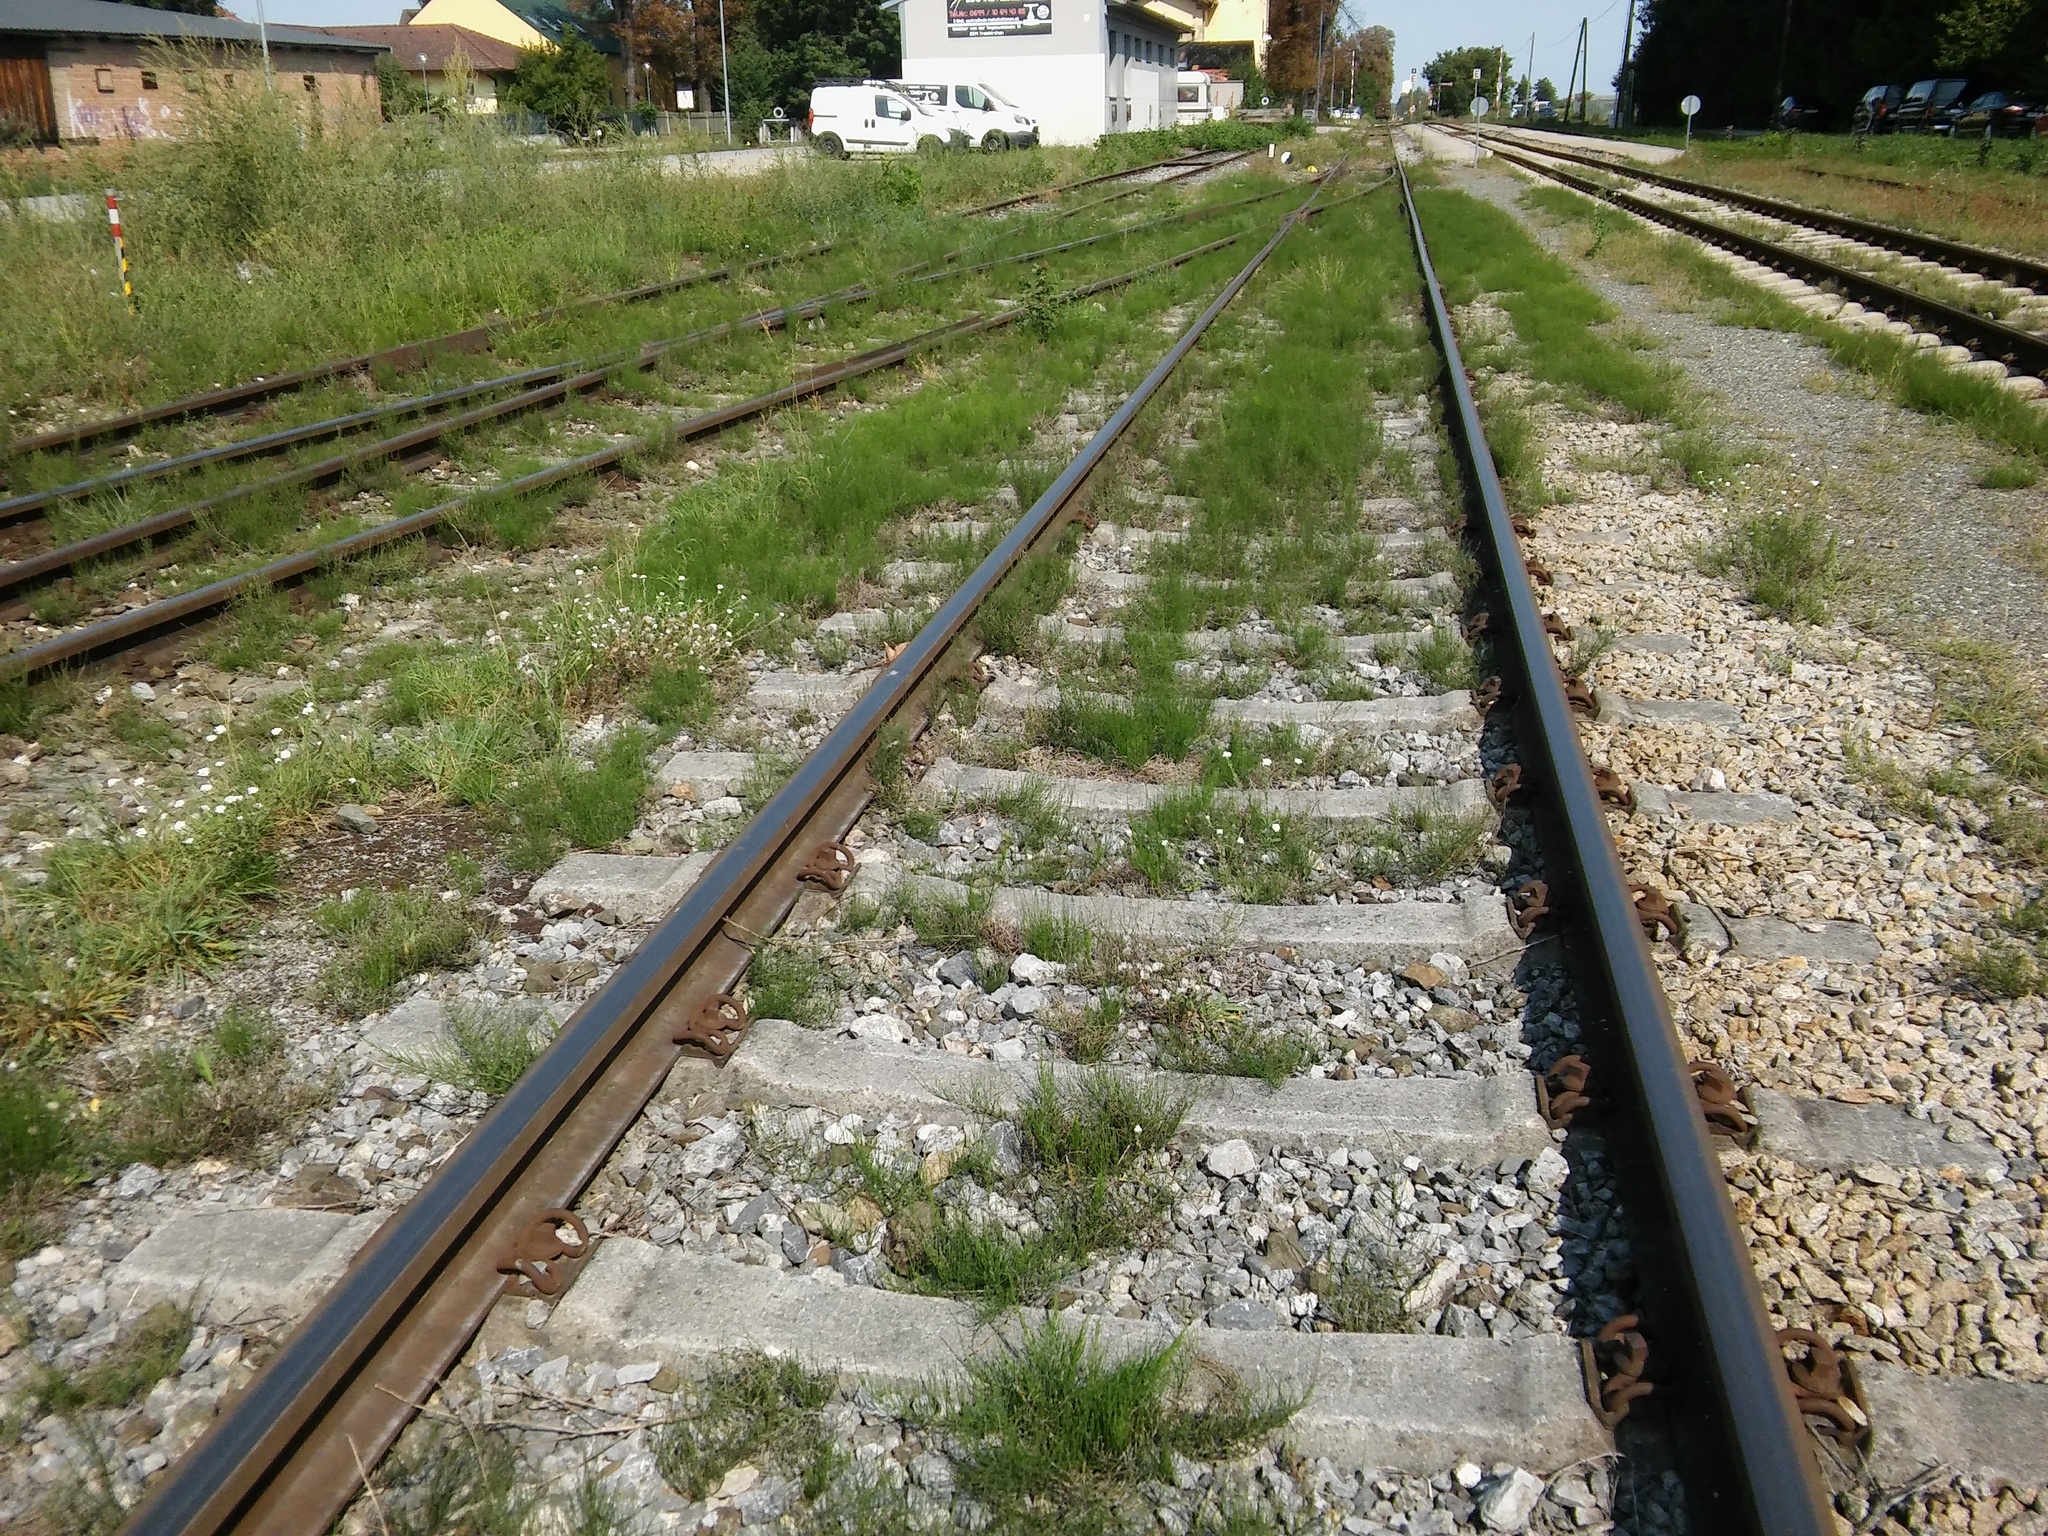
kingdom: Plantae
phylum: Tracheophyta
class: Polypodiopsida
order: Equisetales
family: Equisetaceae
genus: Equisetum
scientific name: Equisetum arvense
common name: Field horsetail
